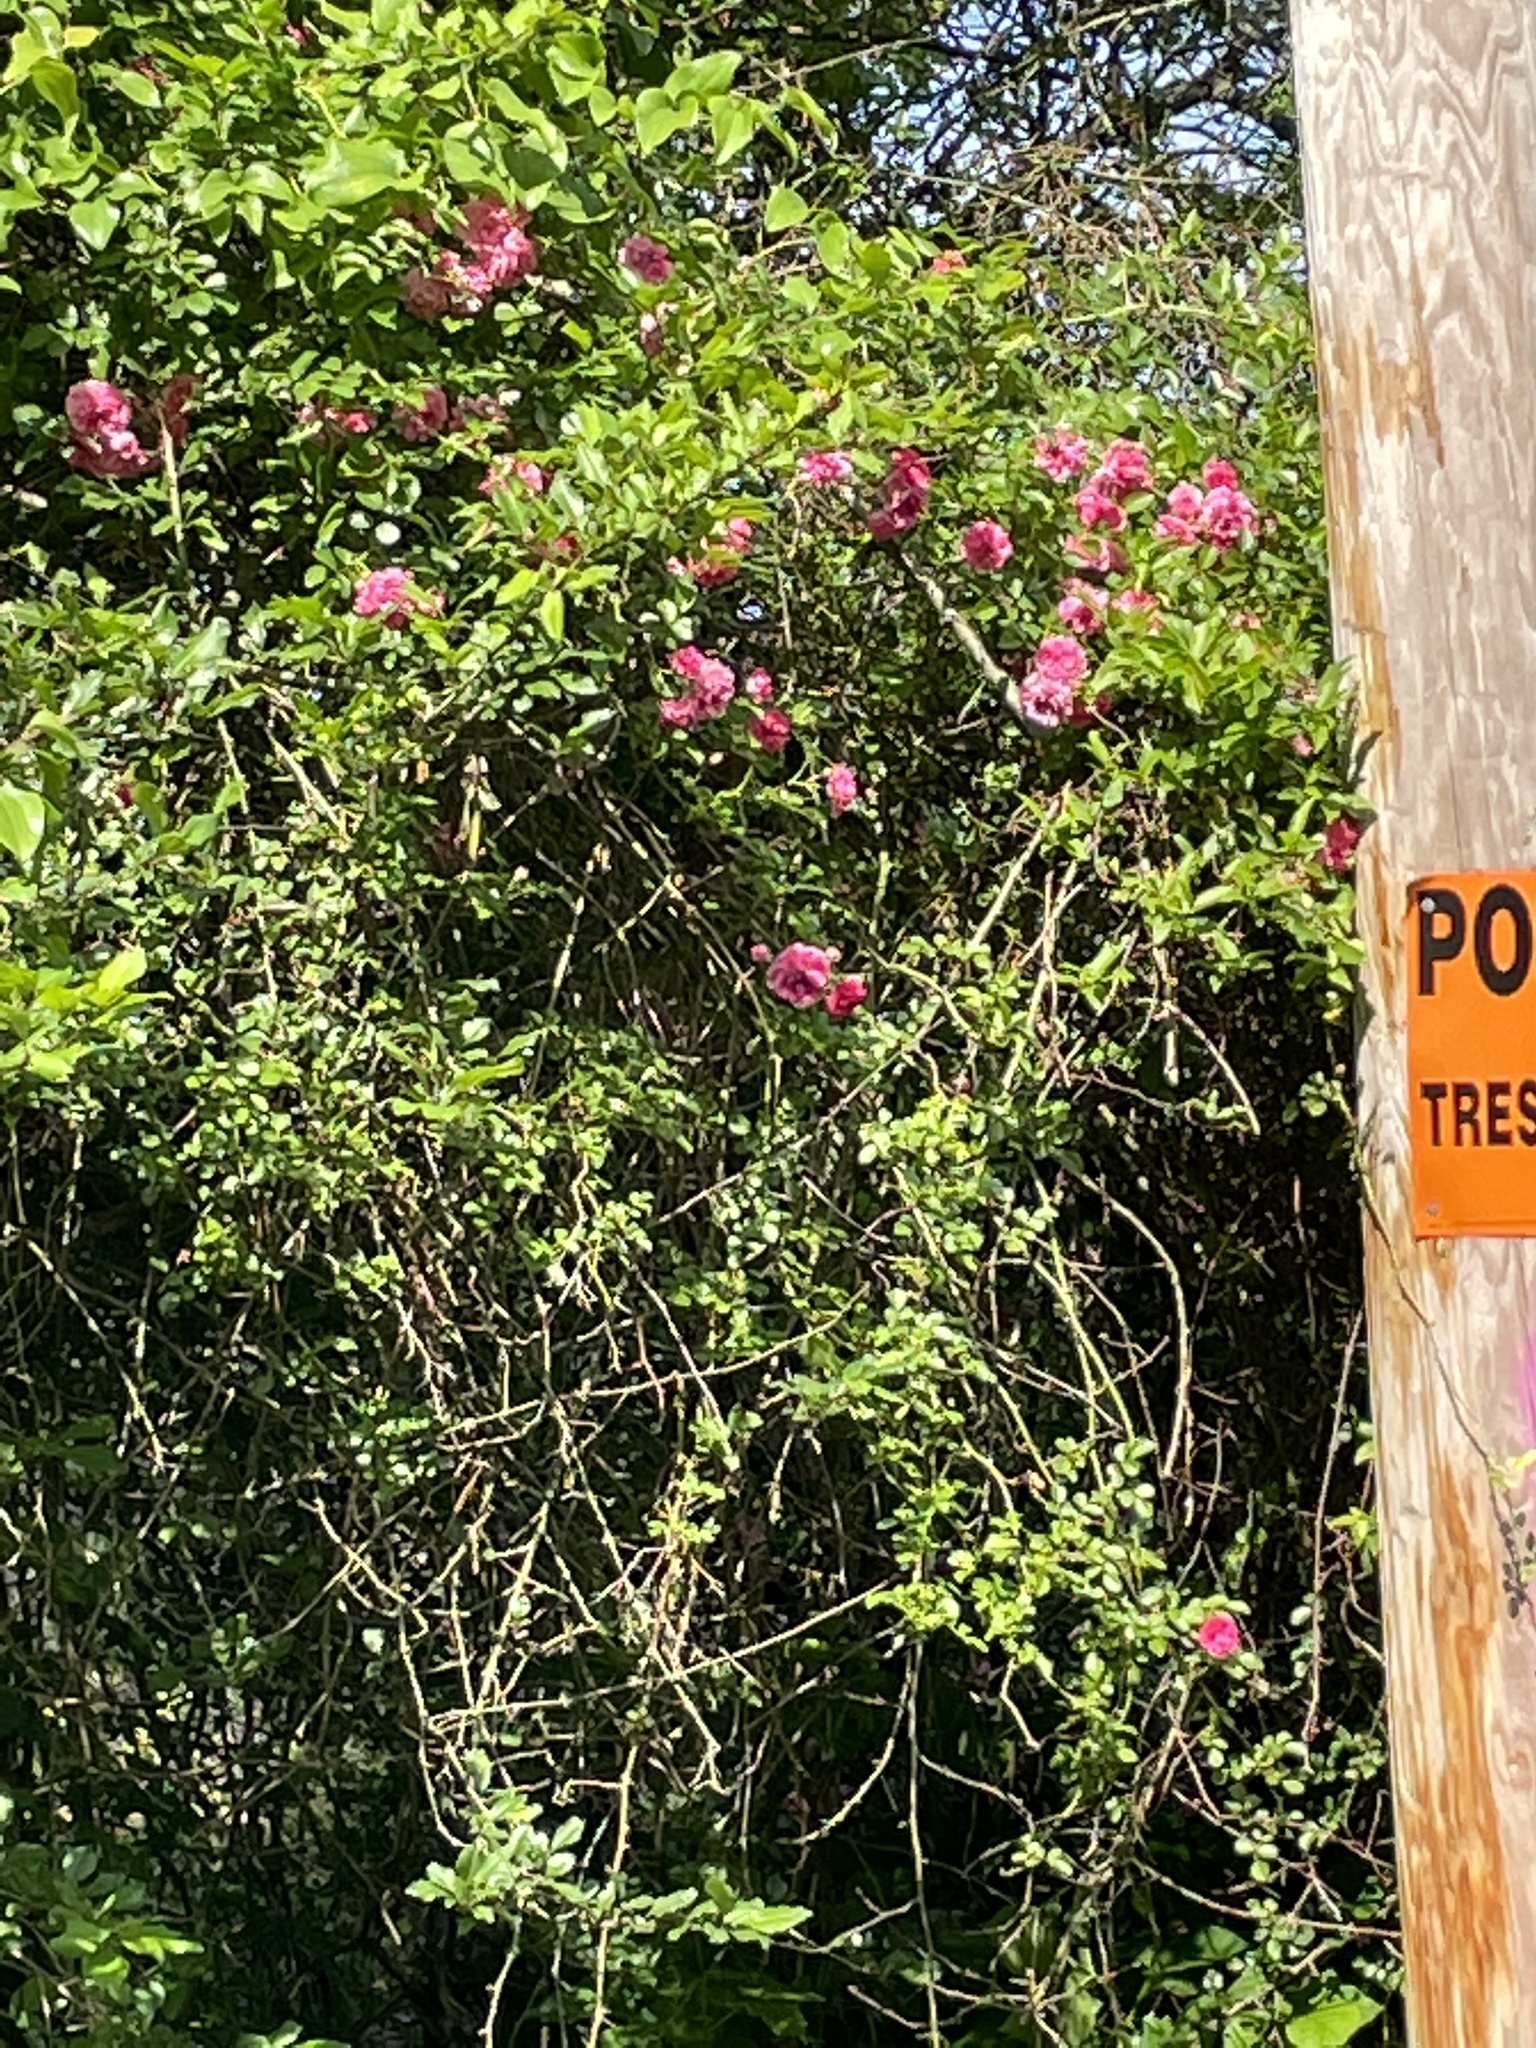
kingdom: Plantae
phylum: Tracheophyta
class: Magnoliopsida
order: Rosales
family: Rosaceae
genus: Rosa
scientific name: Rosa lucieae
